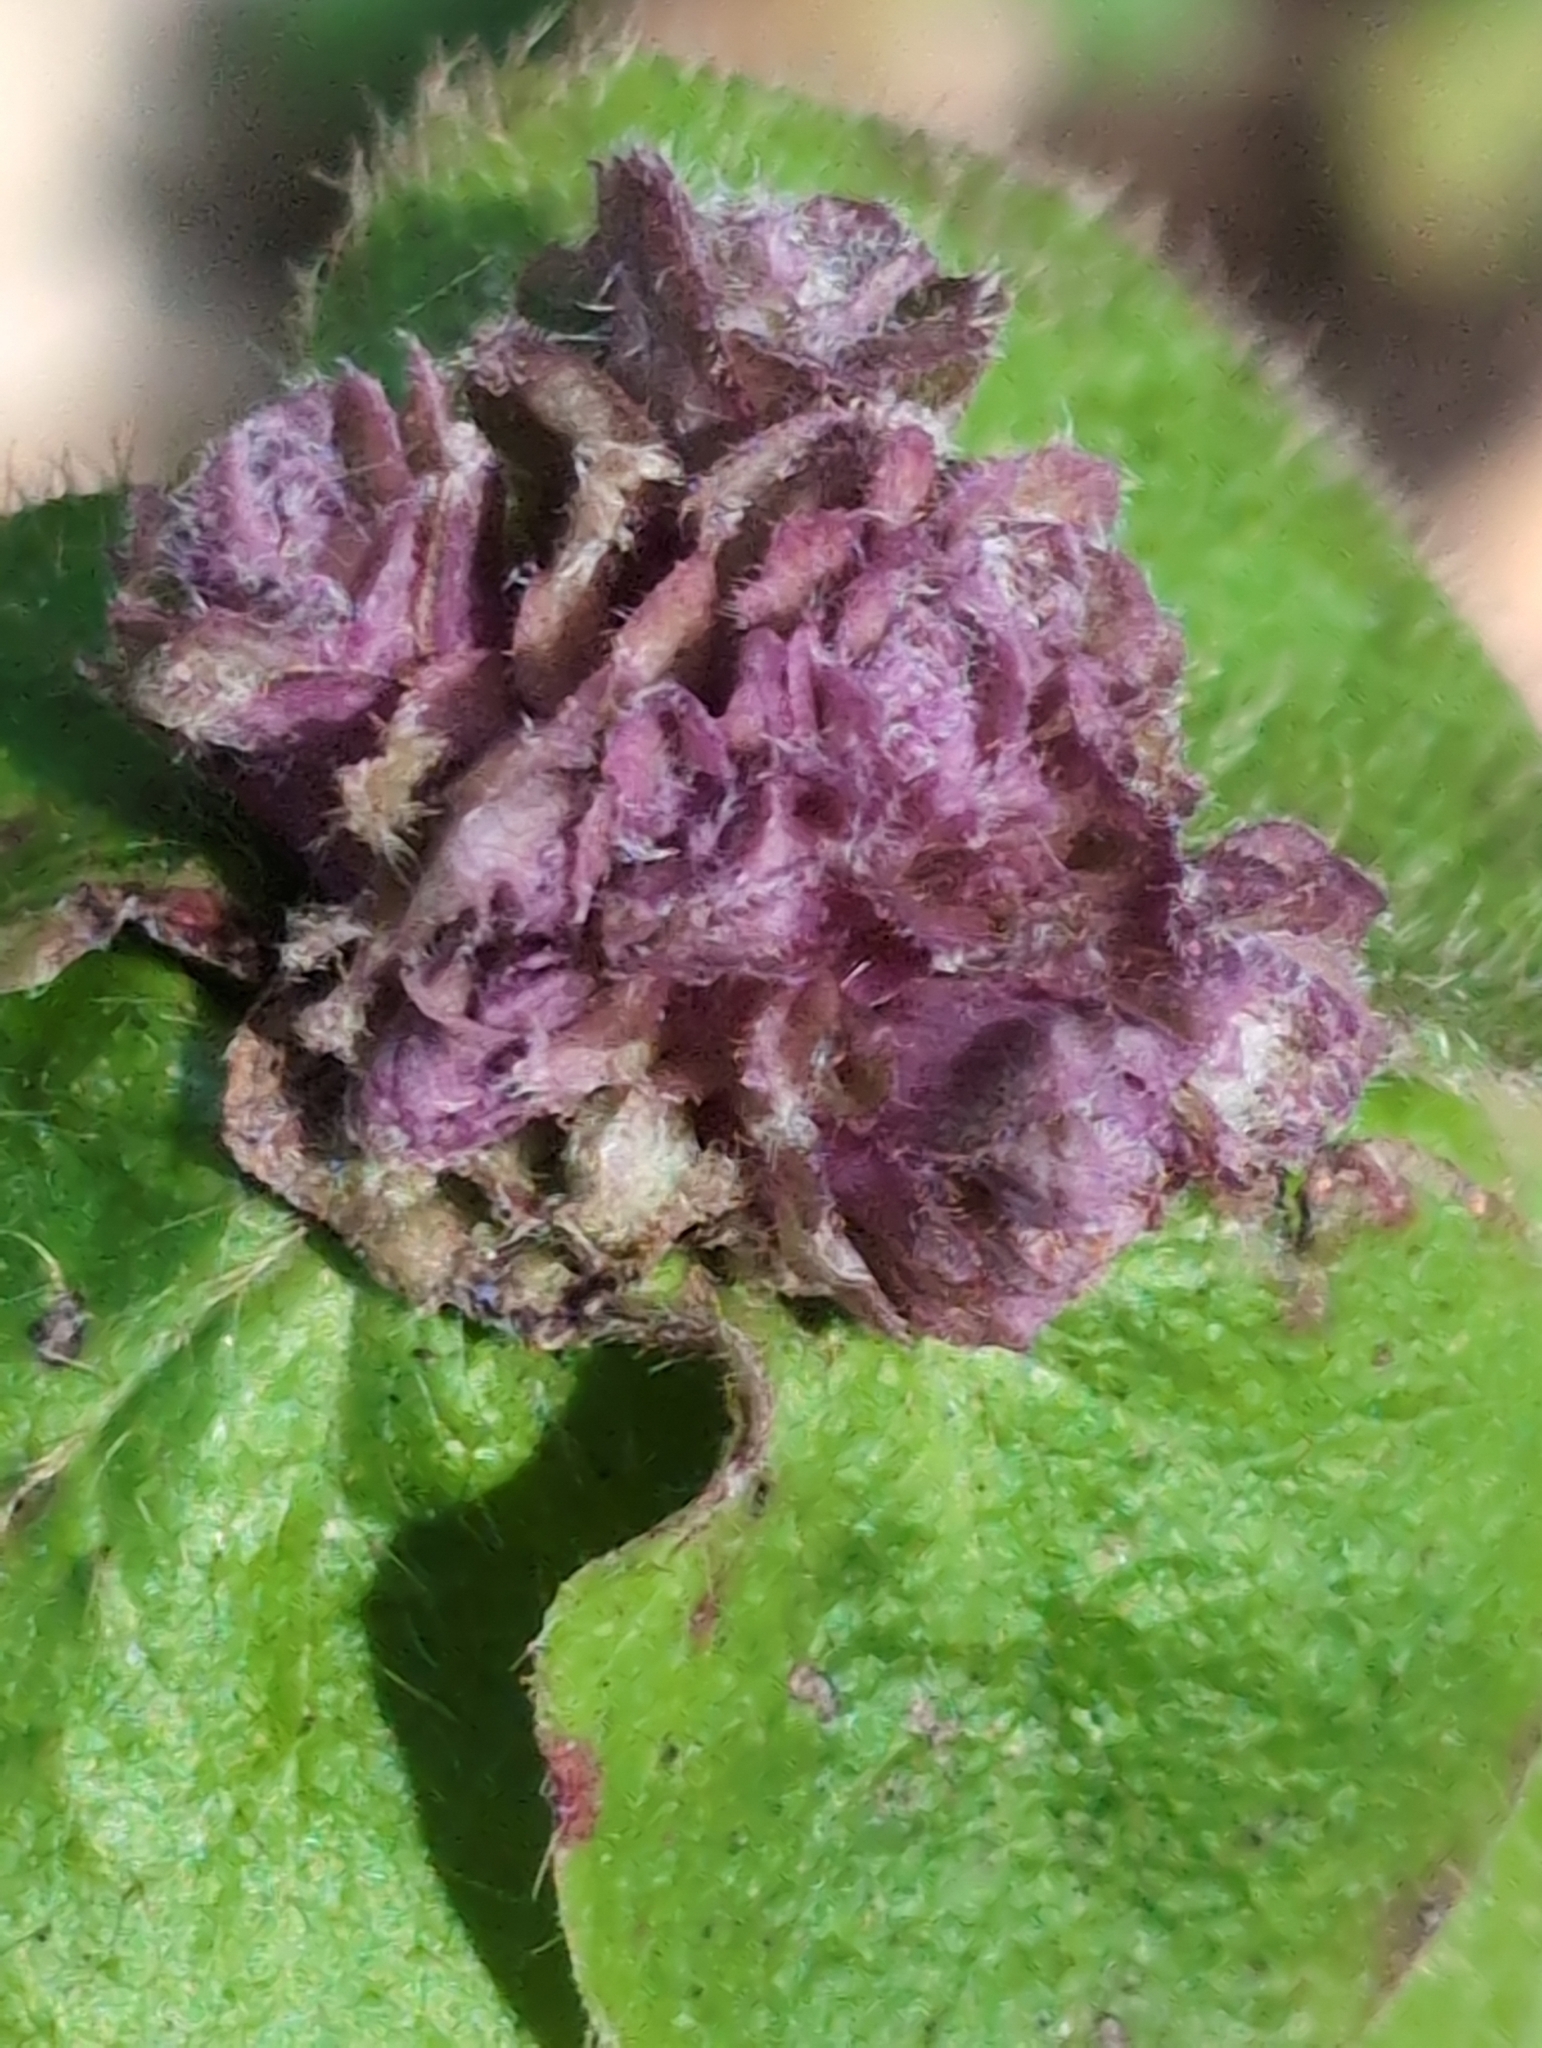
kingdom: Animalia
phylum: Arthropoda
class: Insecta
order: Diptera
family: Cecidomyiidae
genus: Lonicerae
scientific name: Lonicerae russoi
